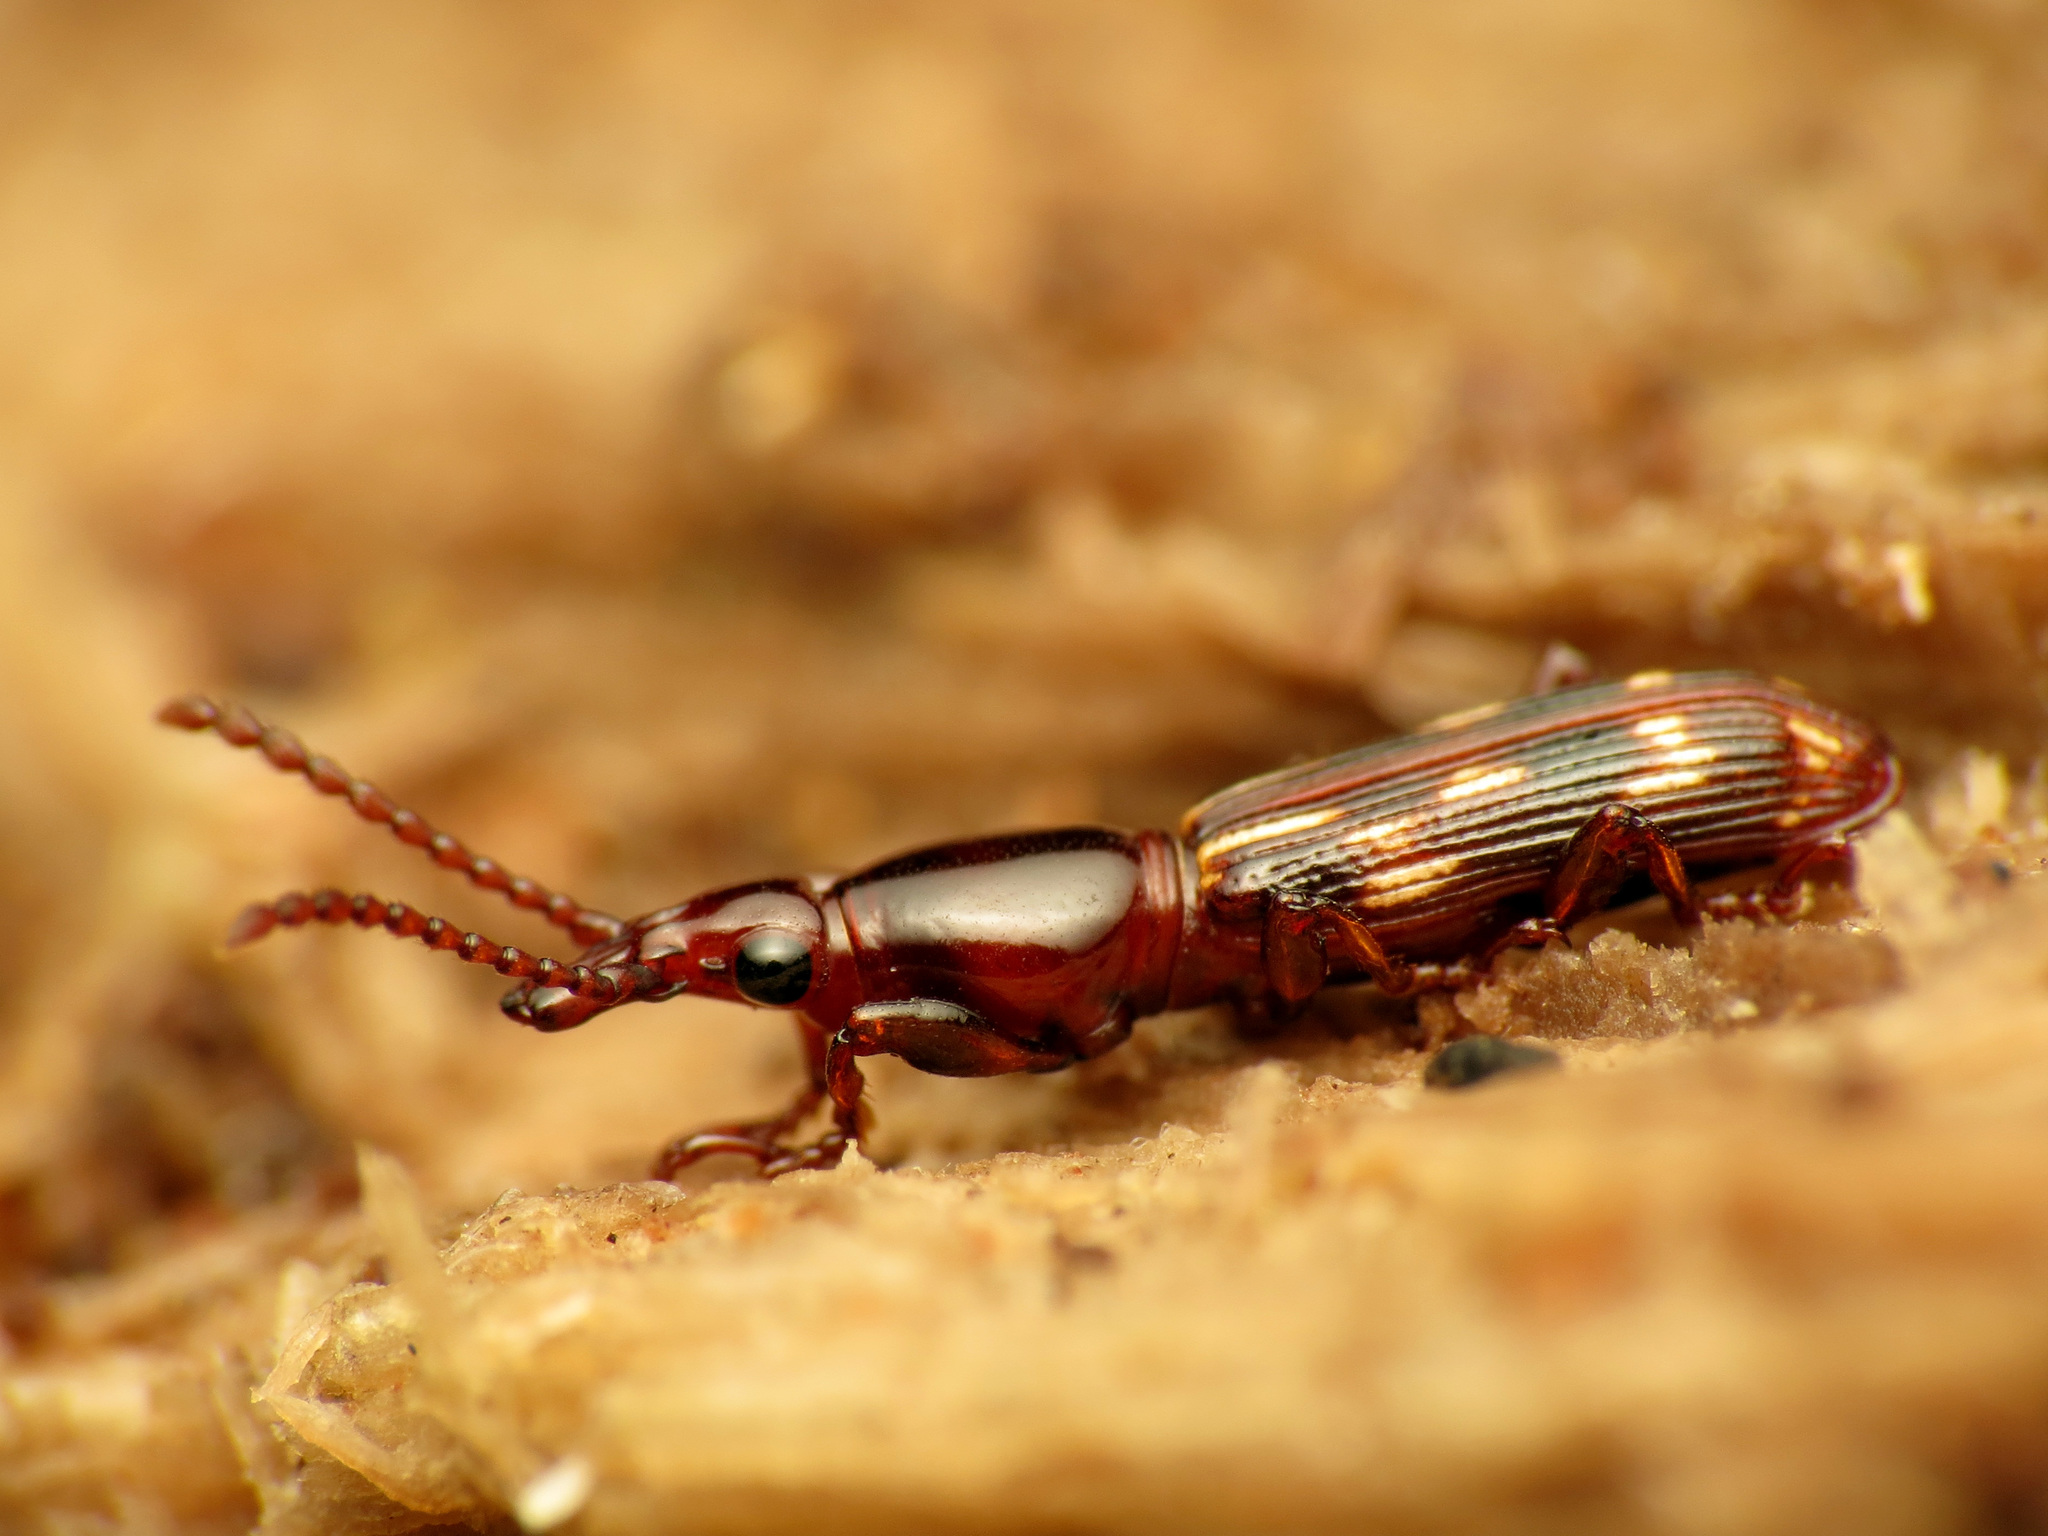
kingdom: Animalia
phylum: Arthropoda
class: Insecta
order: Coleoptera
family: Brentidae
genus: Arrenodes
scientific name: Arrenodes minutus
